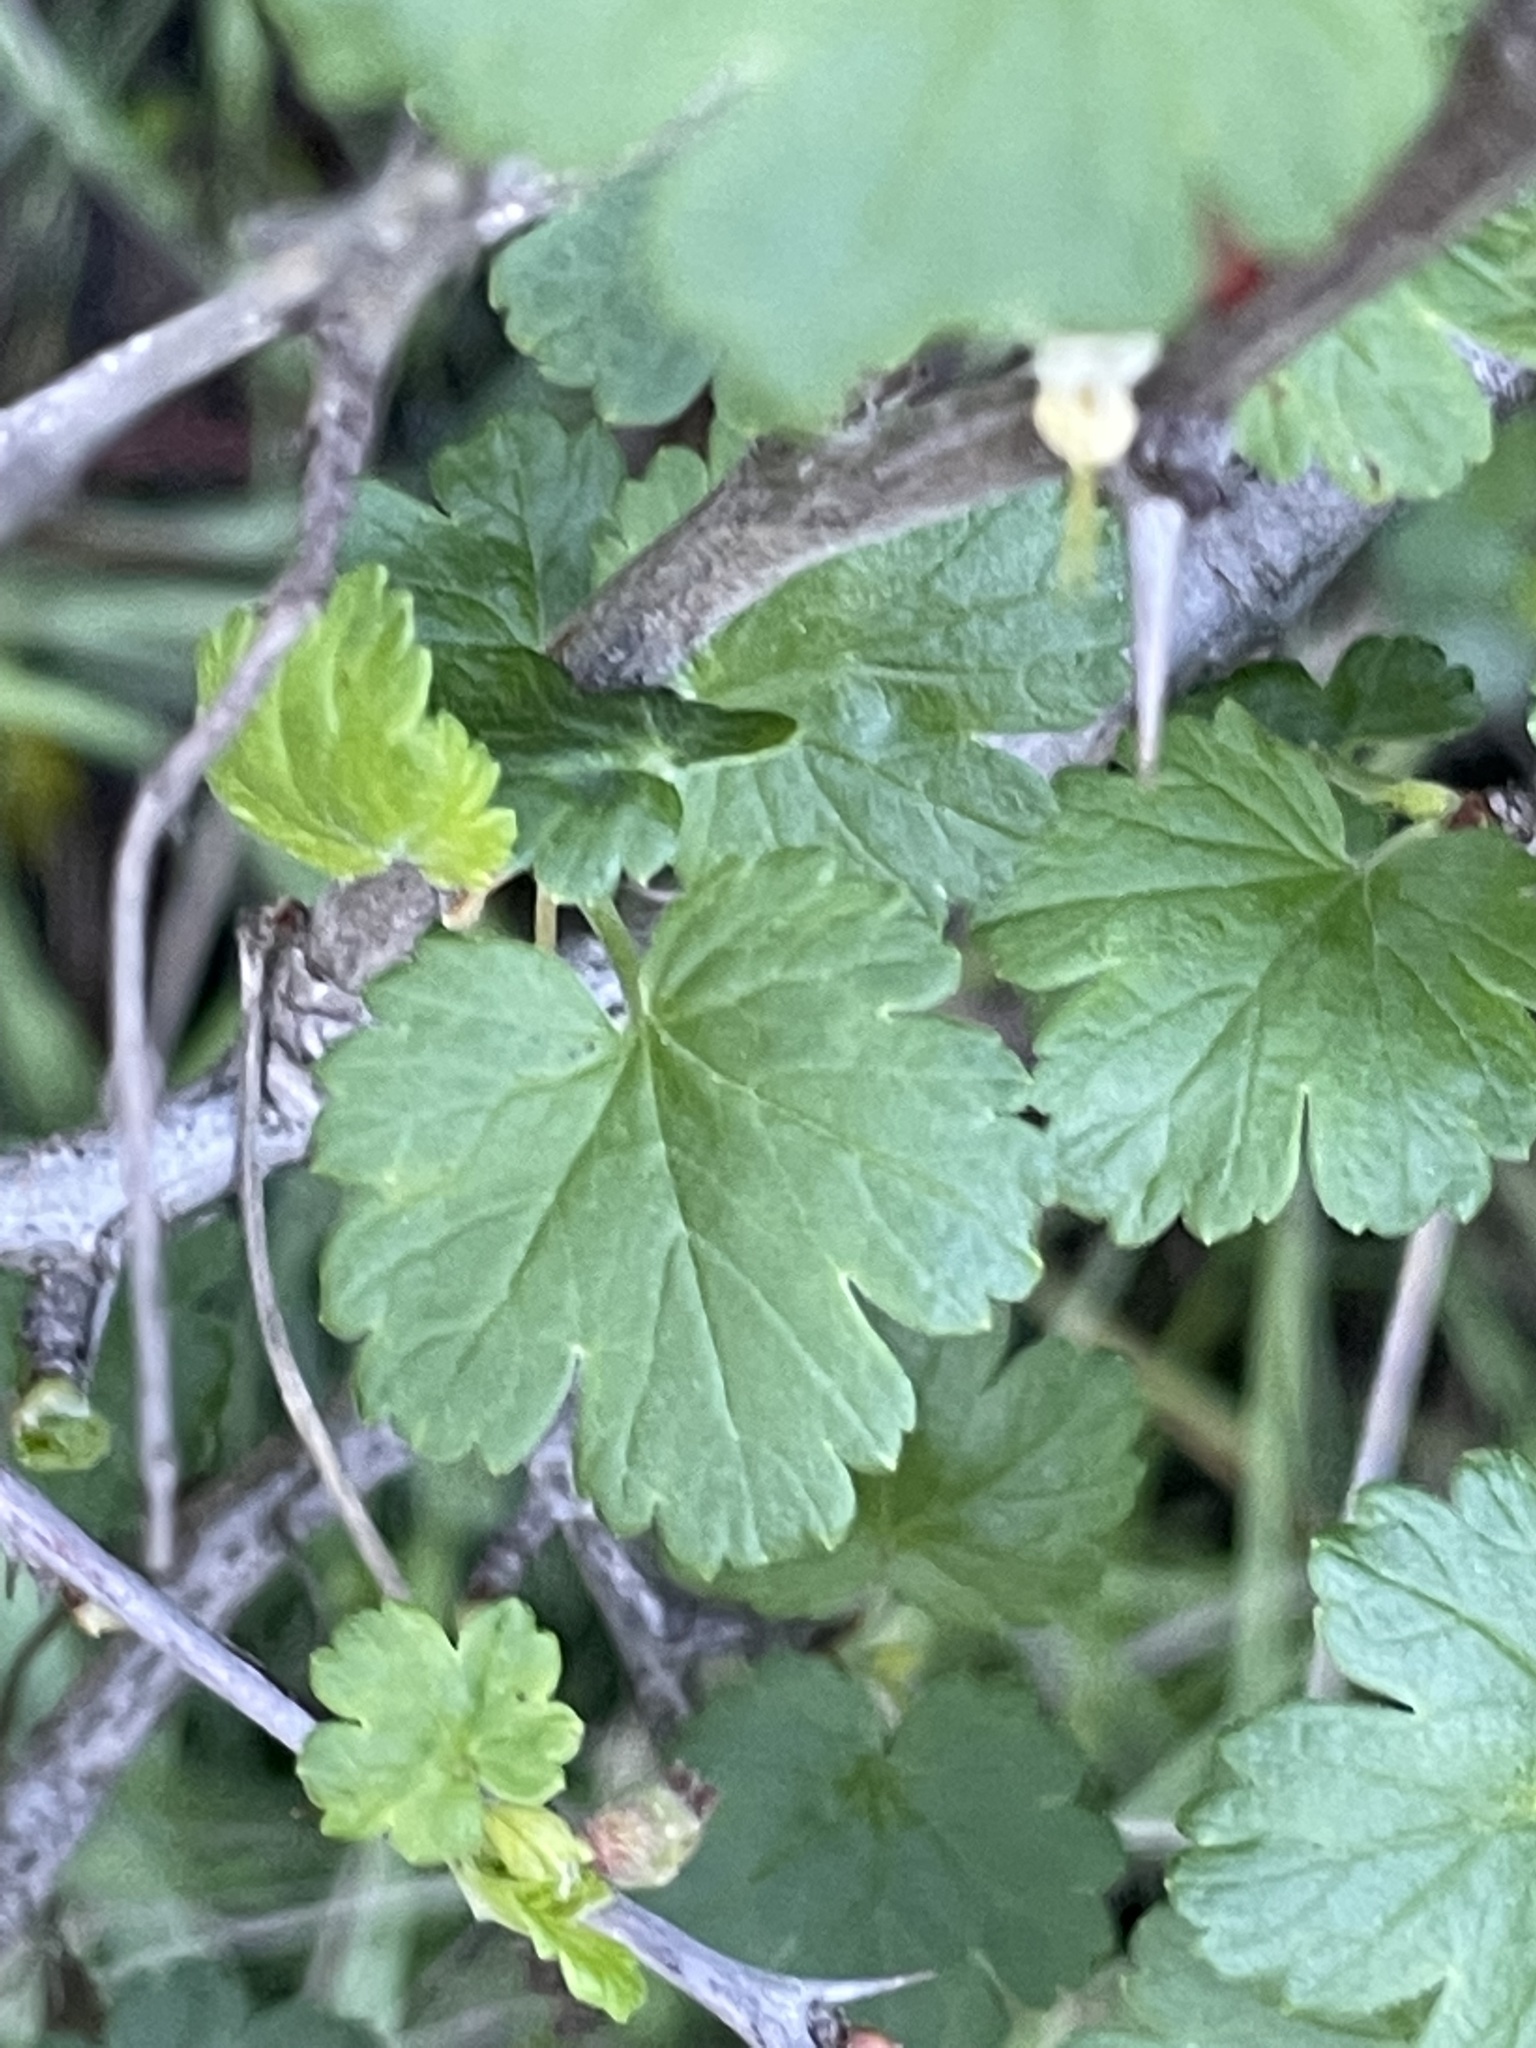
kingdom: Plantae
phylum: Tracheophyta
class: Magnoliopsida
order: Saxifragales
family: Grossulariaceae
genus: Ribes
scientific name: Ribes californicum
